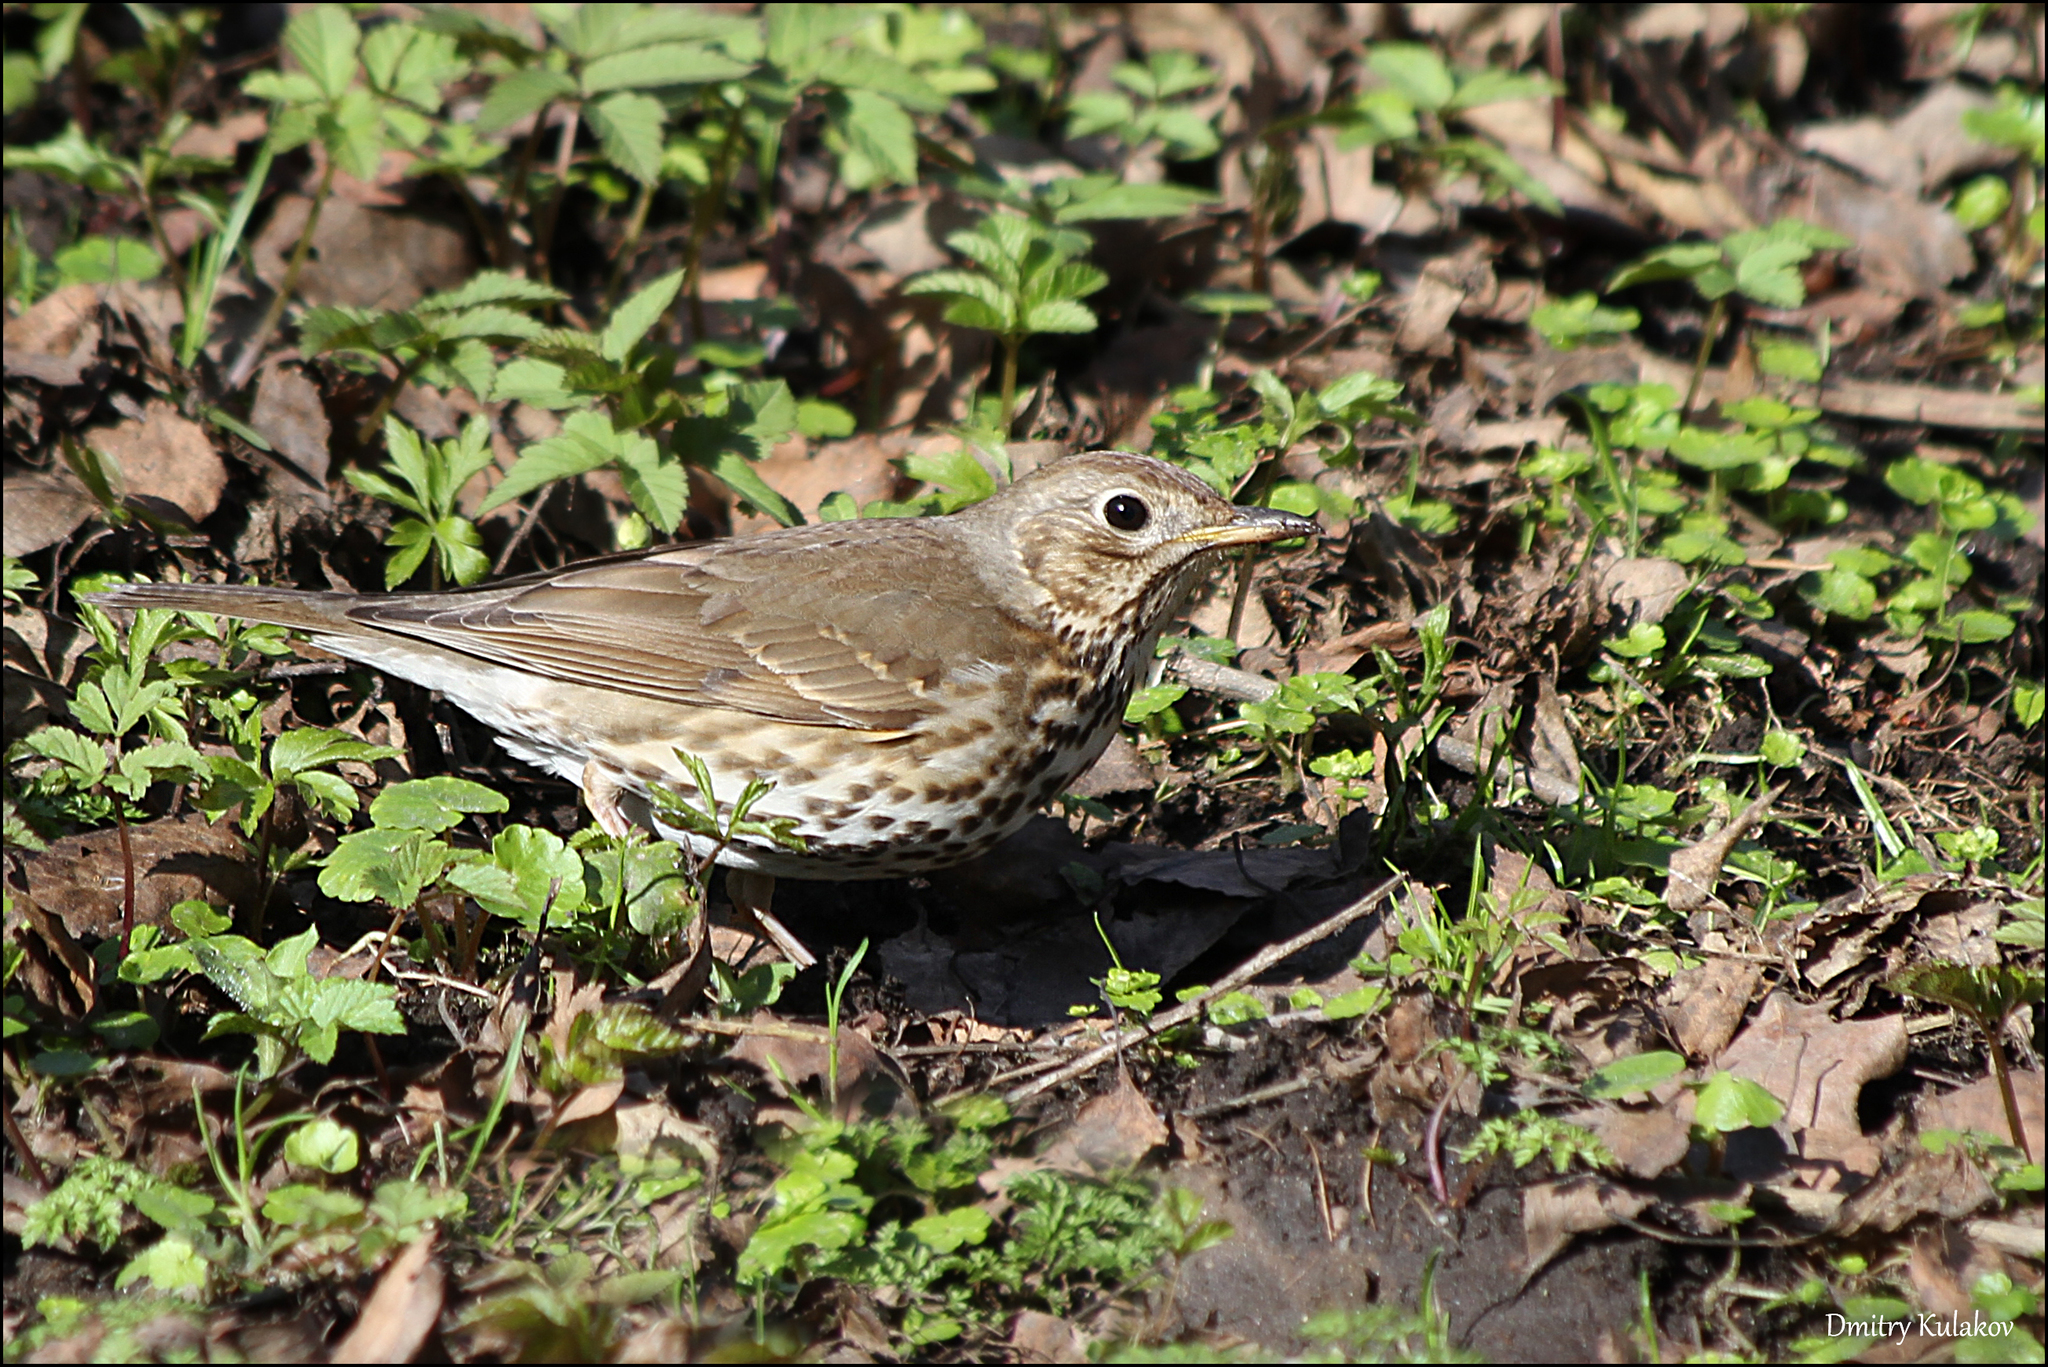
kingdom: Animalia
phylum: Chordata
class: Aves
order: Passeriformes
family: Turdidae
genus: Turdus
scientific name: Turdus philomelos
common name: Song thrush
